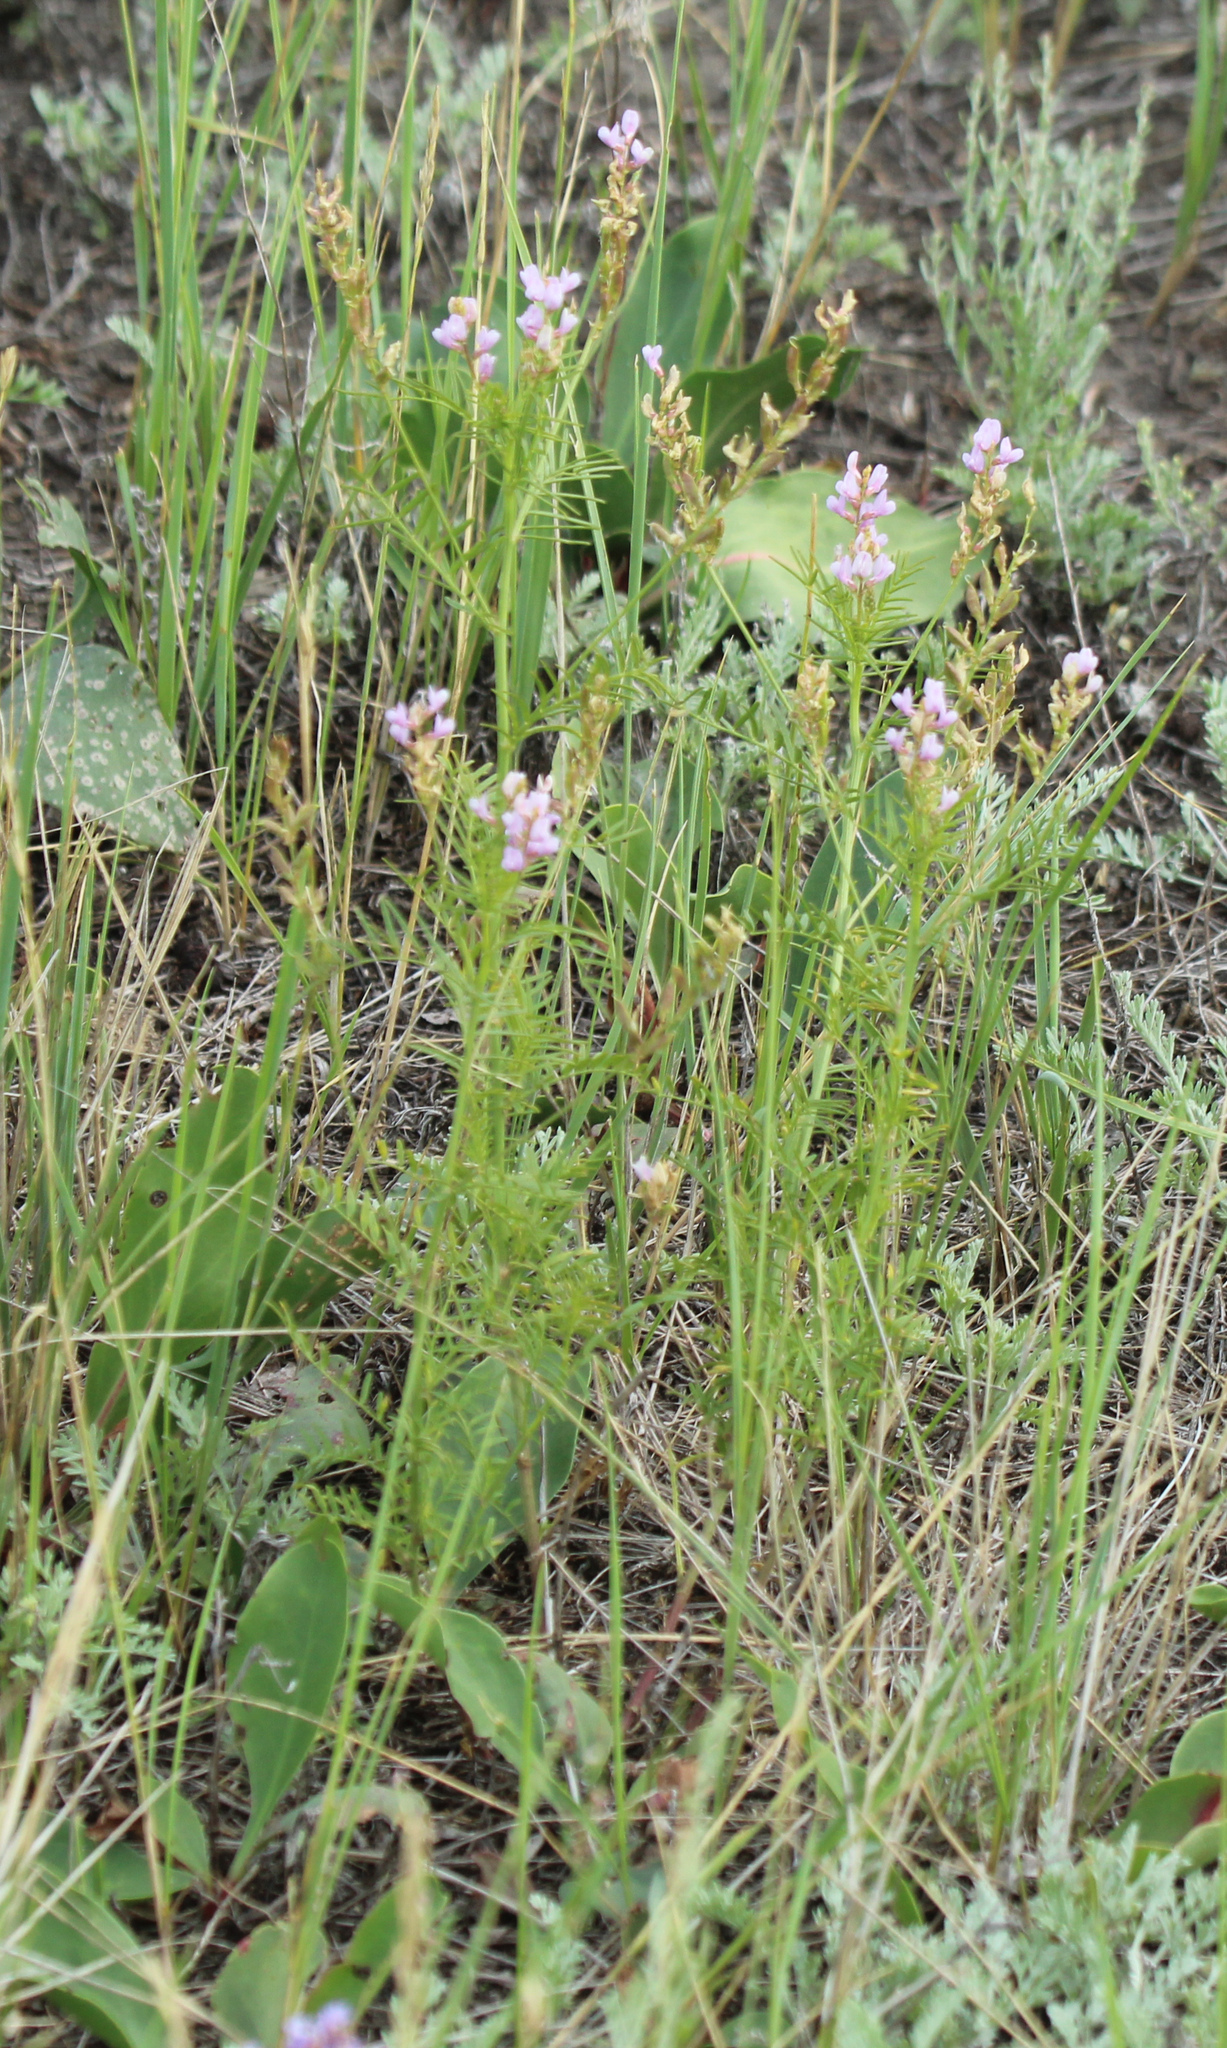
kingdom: Plantae
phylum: Tracheophyta
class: Magnoliopsida
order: Fabales
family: Fabaceae
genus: Astragalus
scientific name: Astragalus sulcatus
